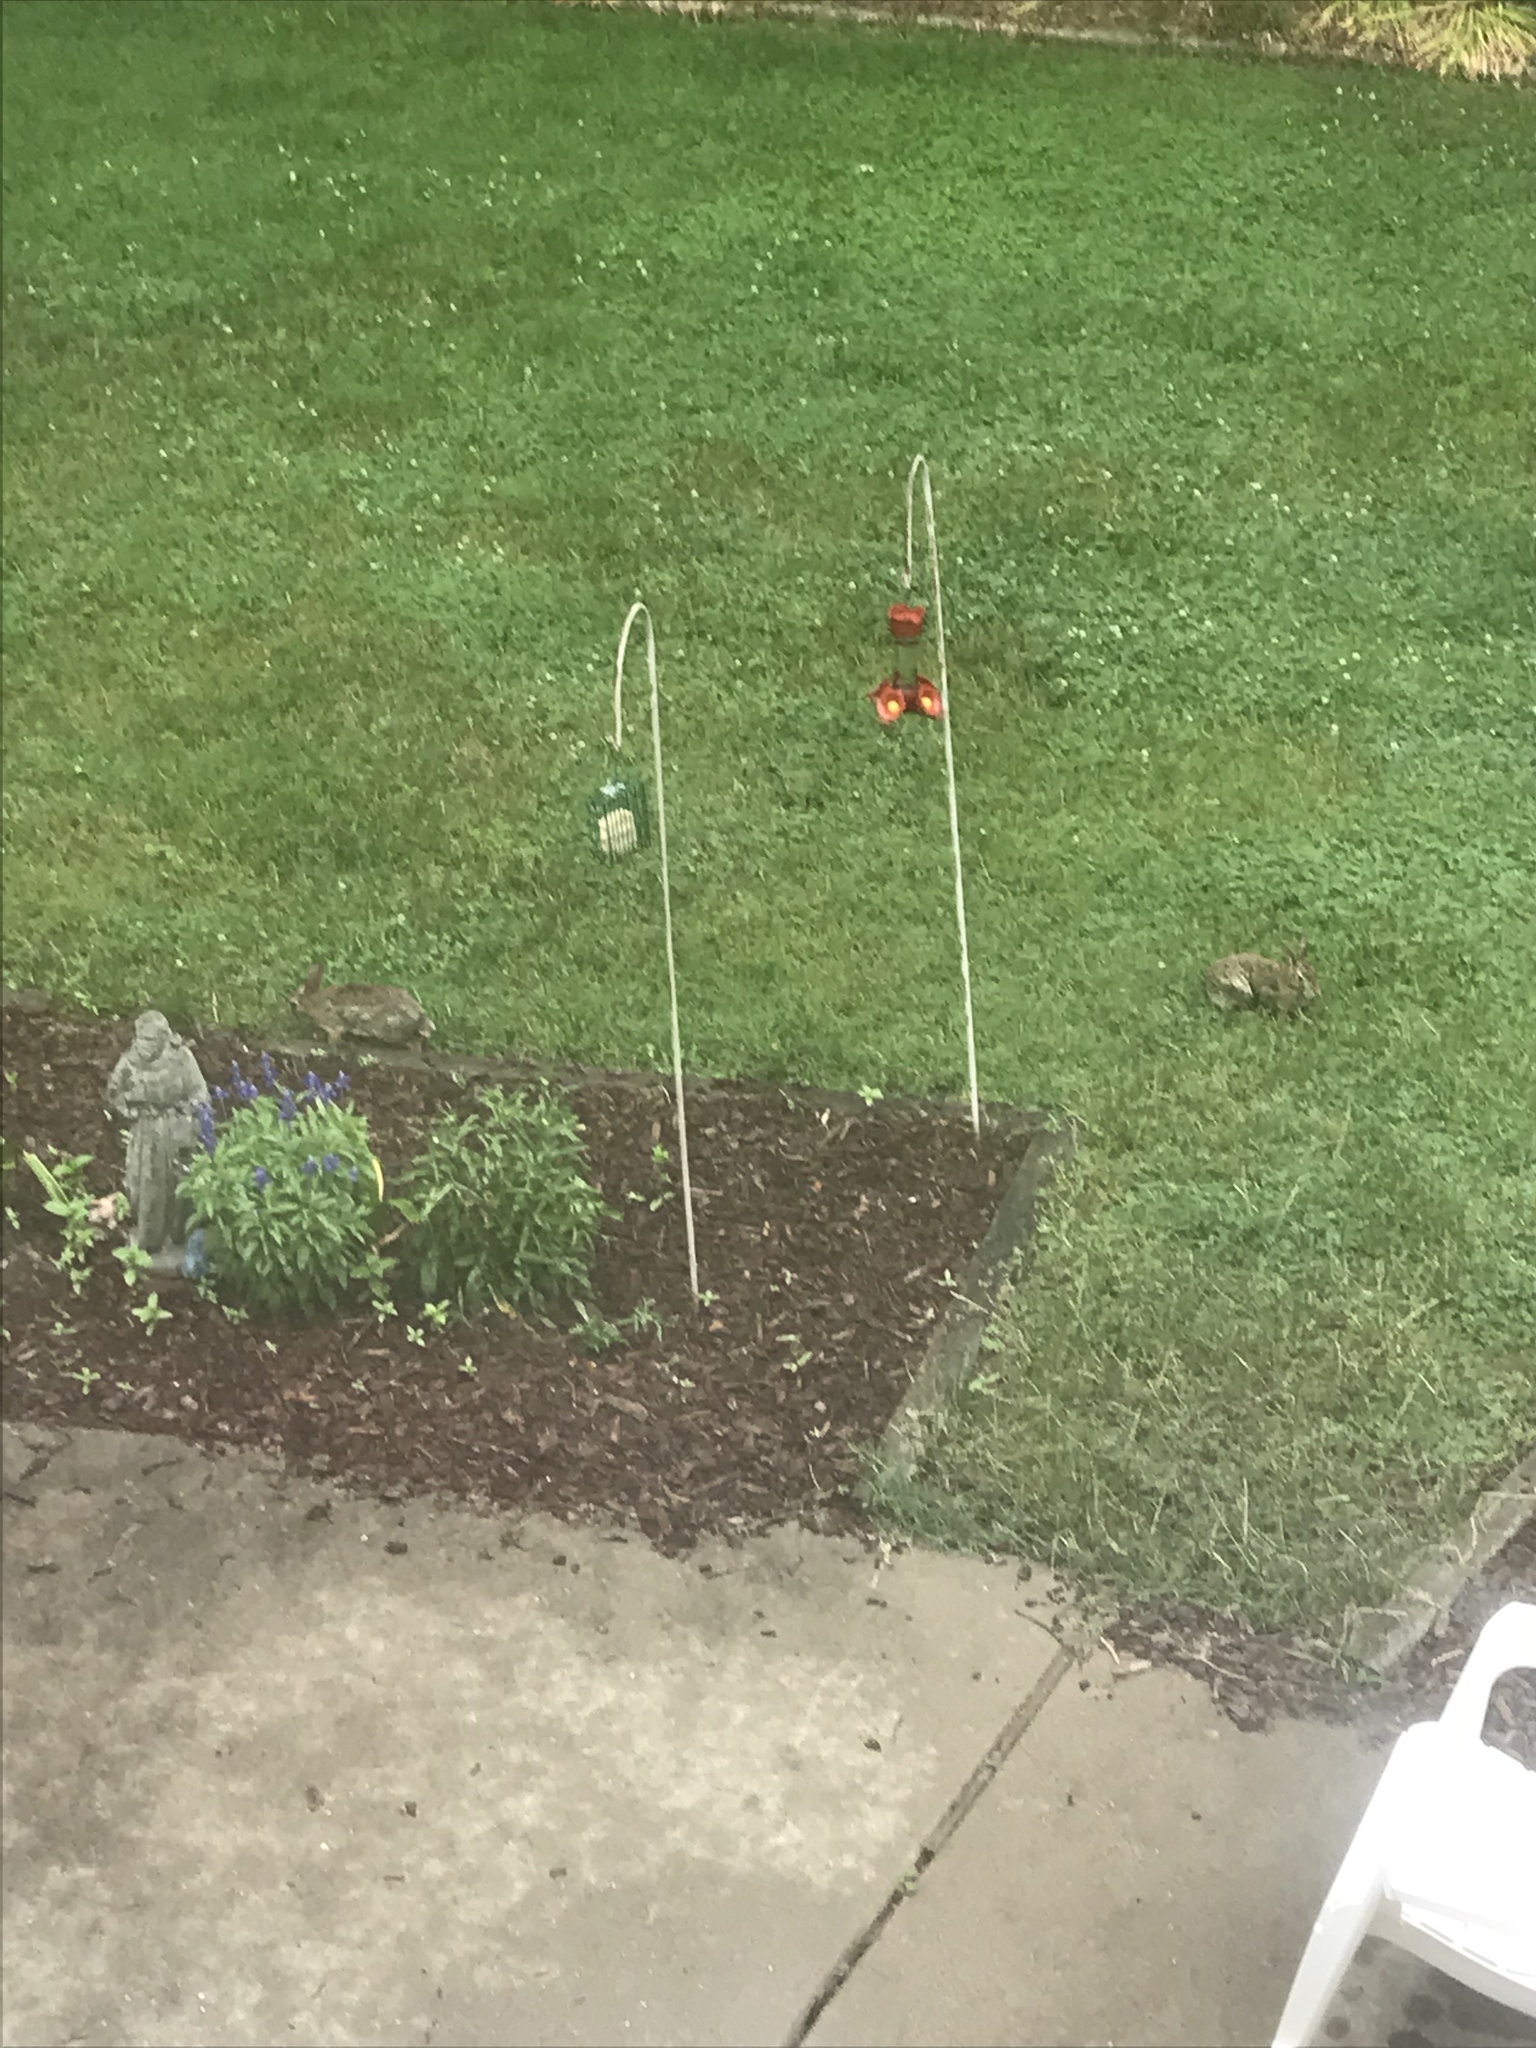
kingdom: Animalia
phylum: Chordata
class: Mammalia
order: Lagomorpha
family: Leporidae
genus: Sylvilagus
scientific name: Sylvilagus floridanus
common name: Eastern cottontail
